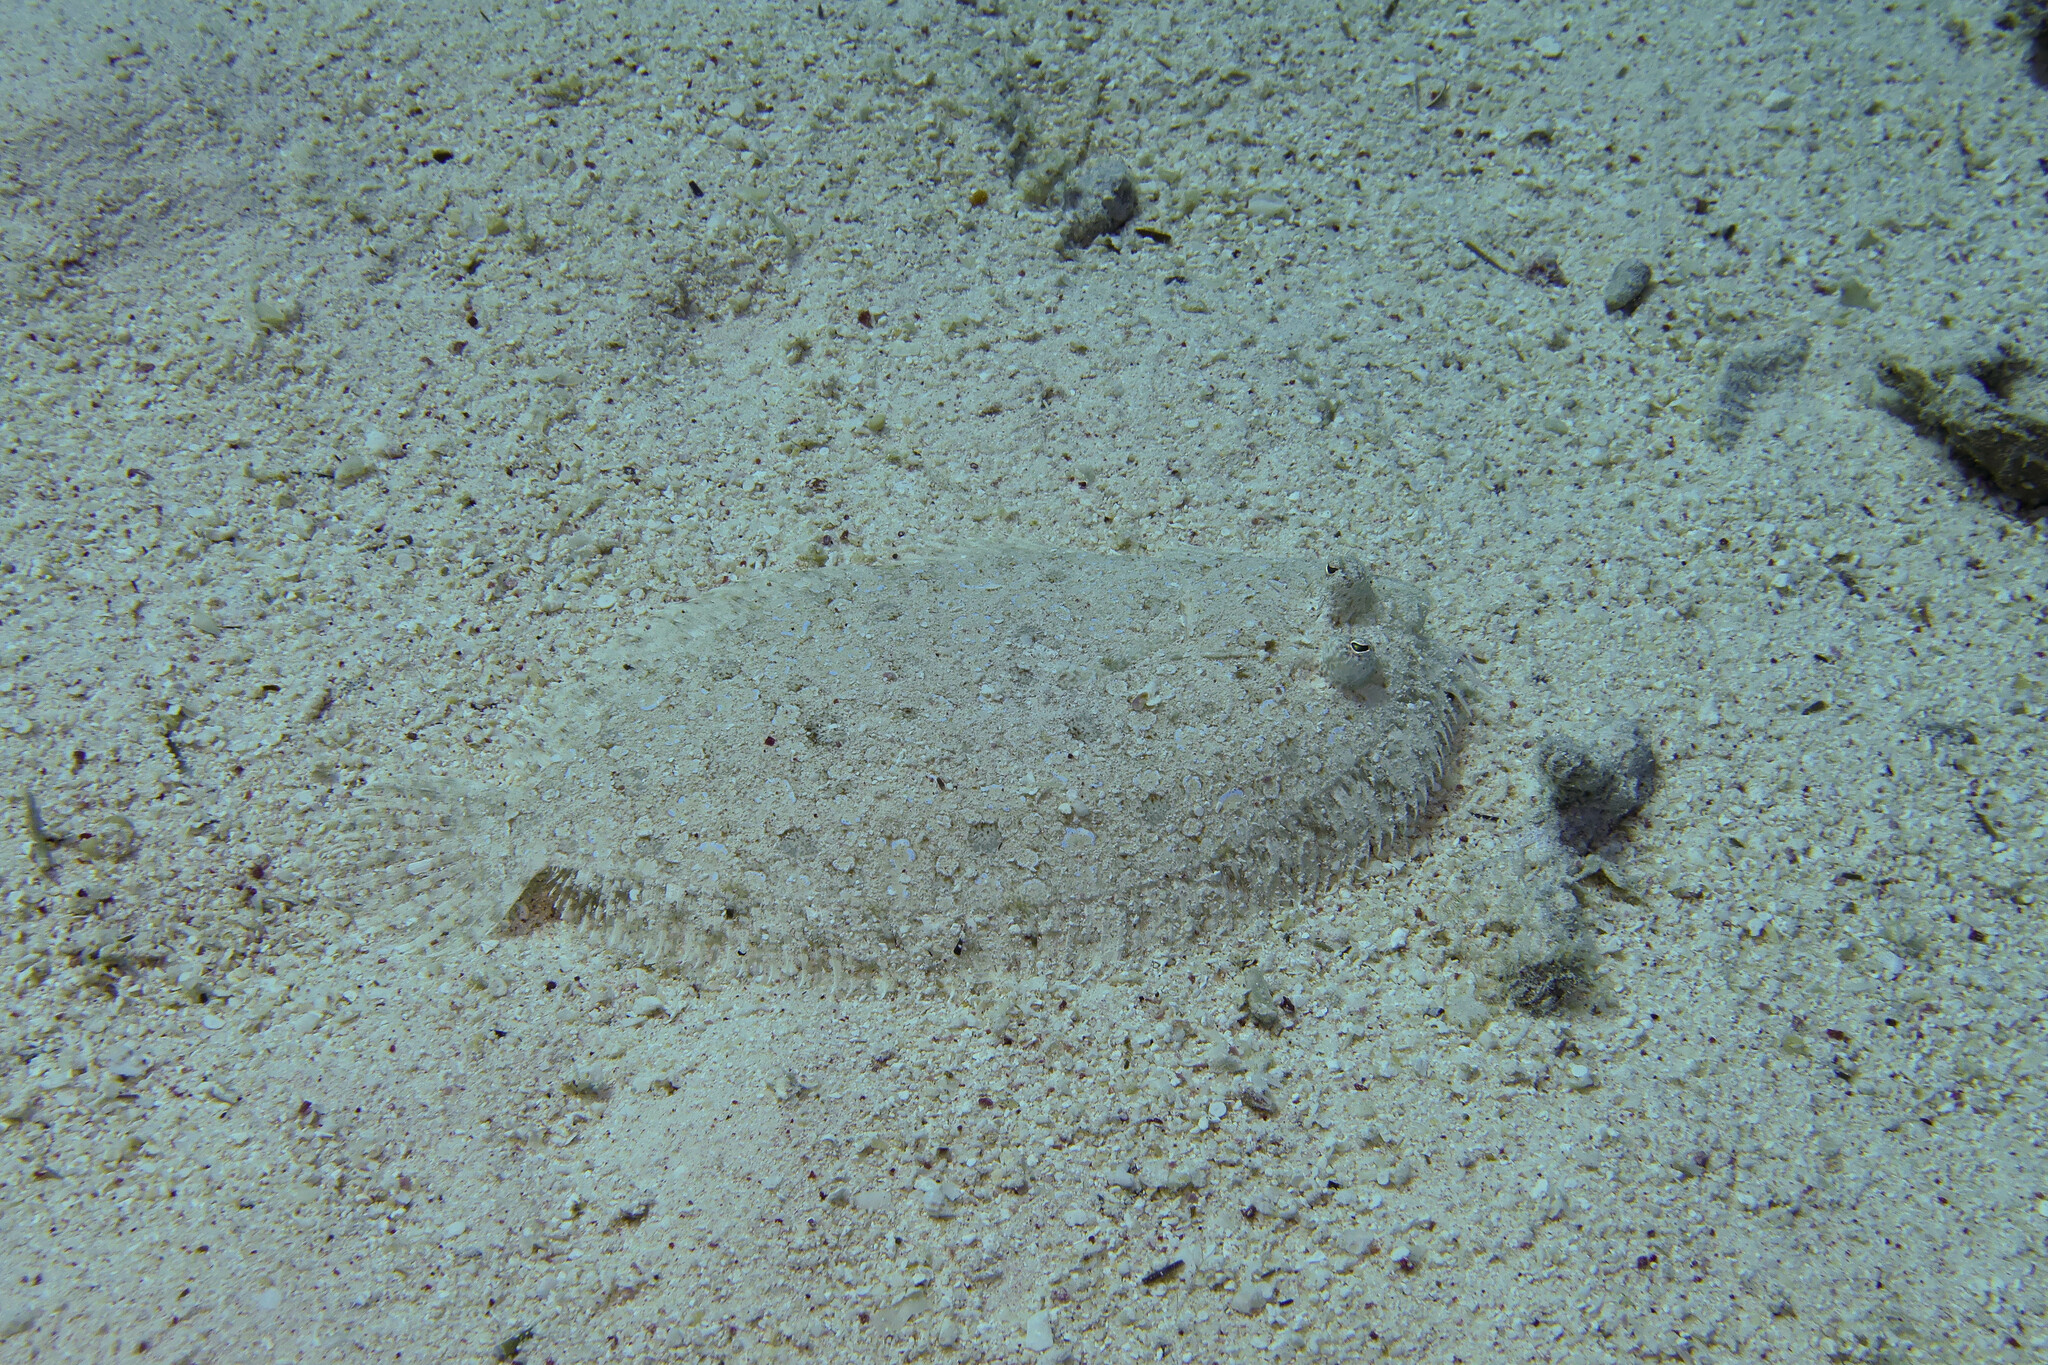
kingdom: Animalia
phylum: Chordata
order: Pleuronectiformes
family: Bothidae
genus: Bothus
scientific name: Bothus pantherinus
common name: Leopard flounder
